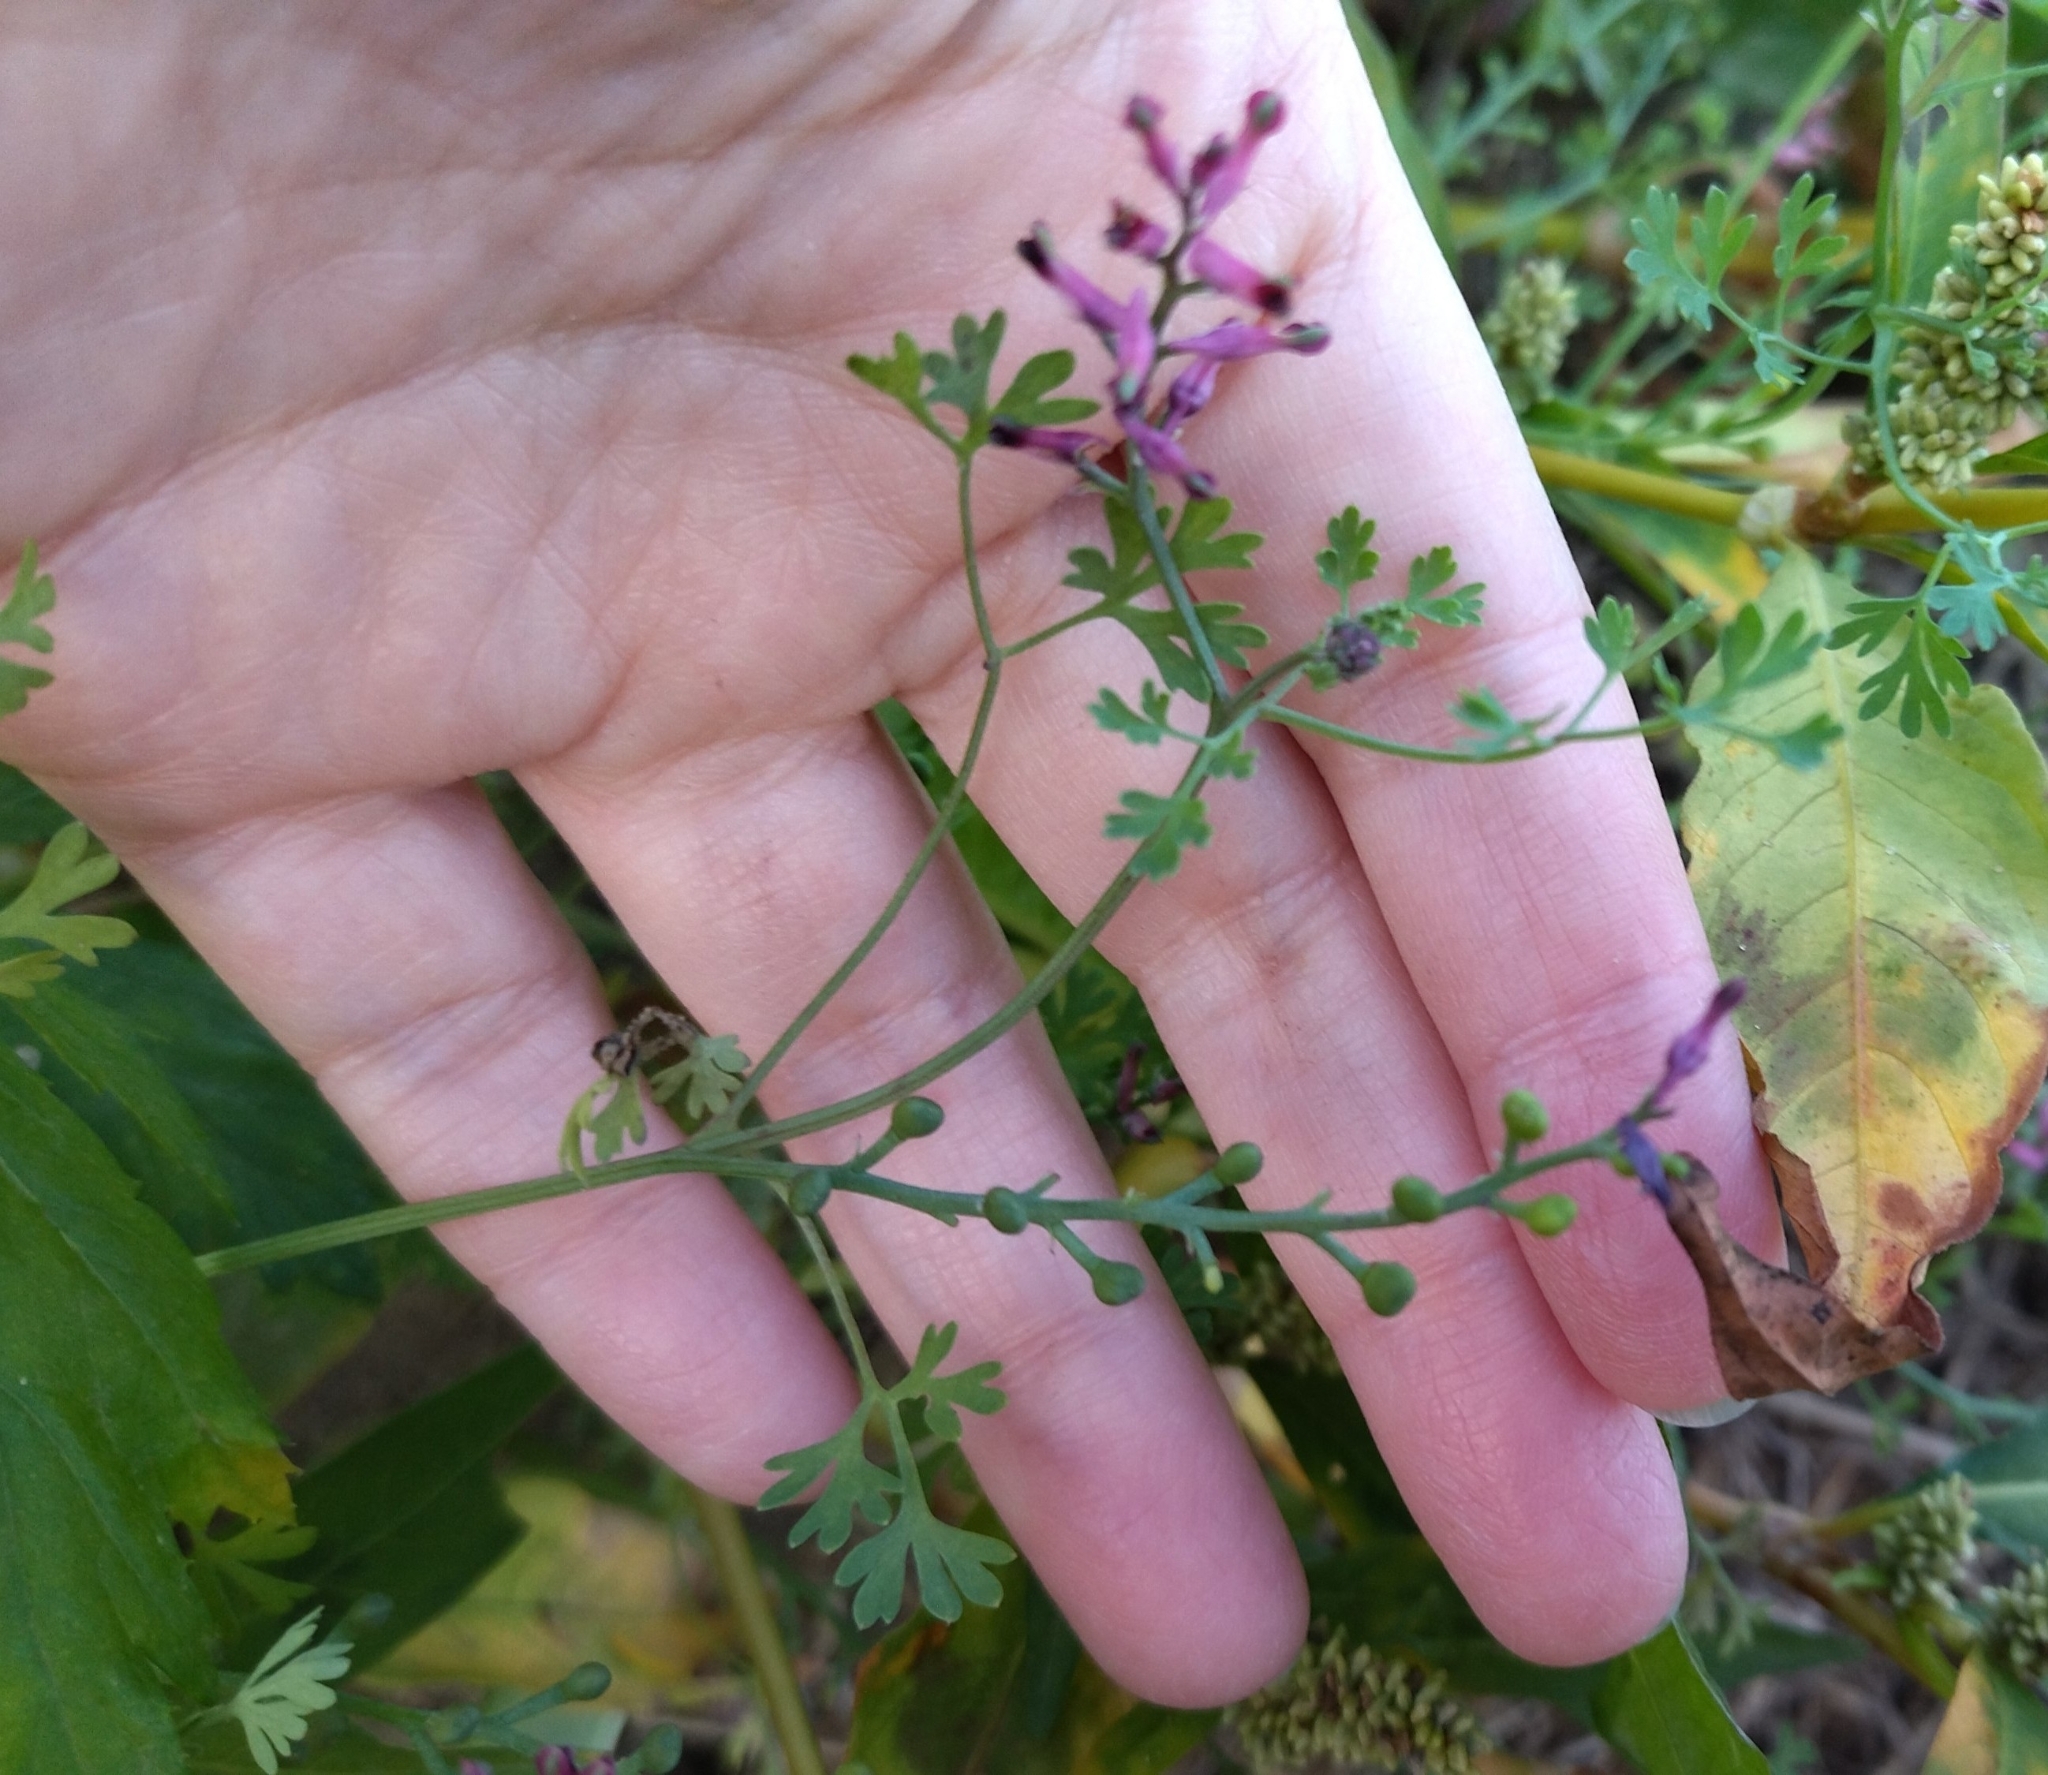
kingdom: Plantae
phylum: Tracheophyta
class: Magnoliopsida
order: Ranunculales
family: Papaveraceae
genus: Fumaria
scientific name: Fumaria officinalis
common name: Common fumitory
